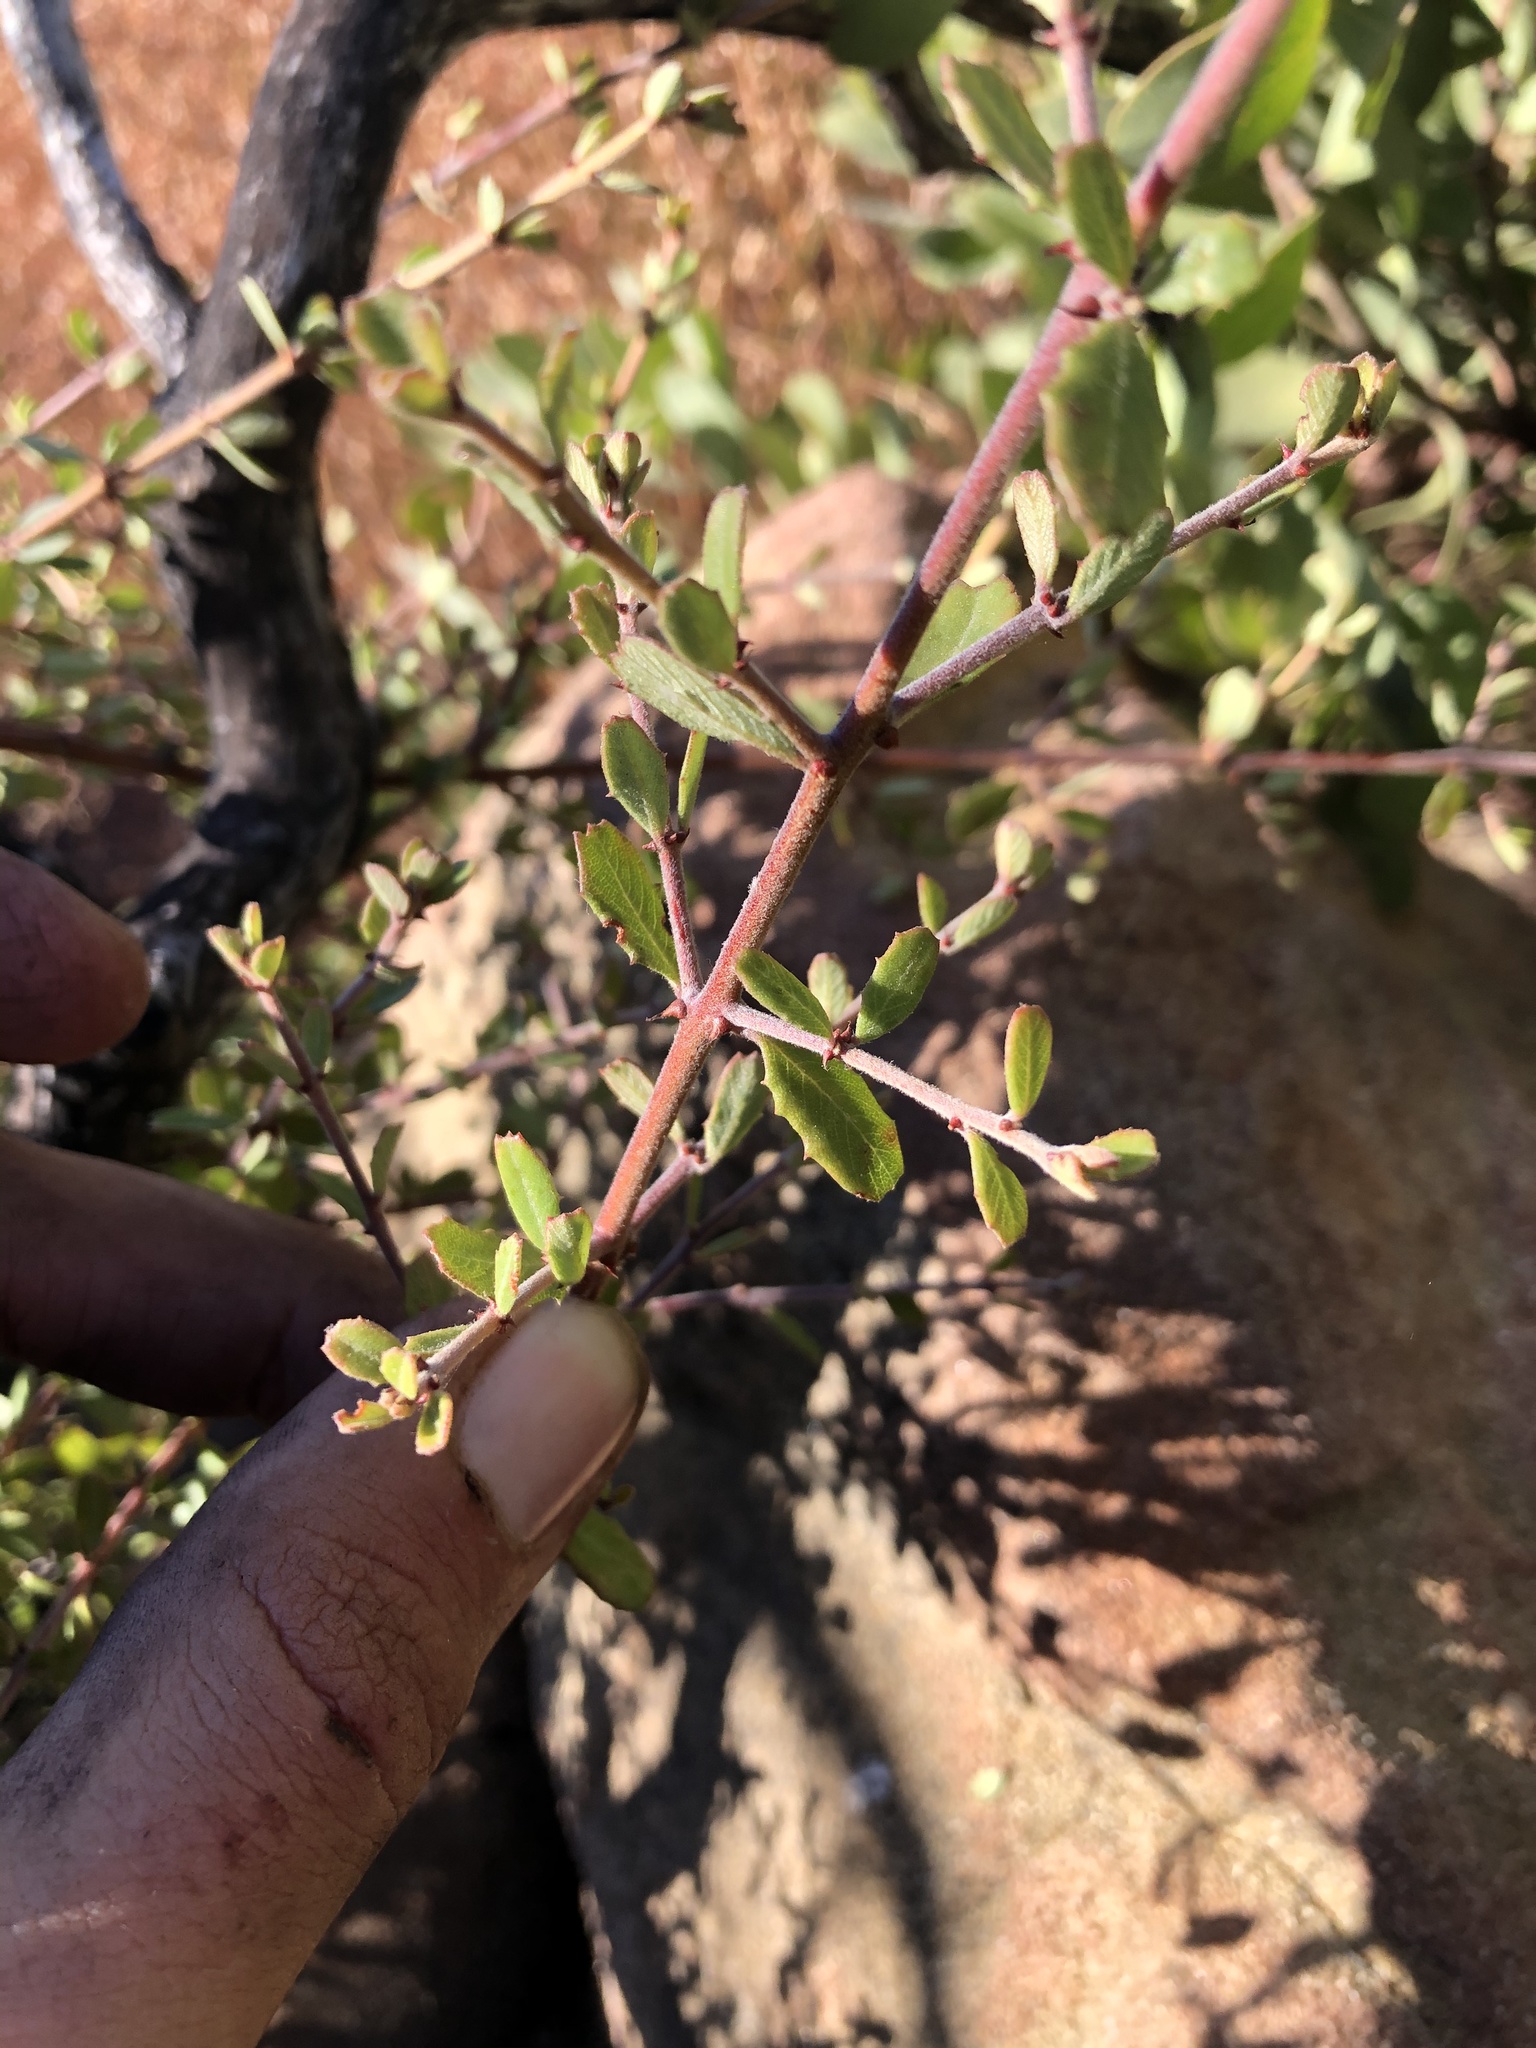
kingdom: Plantae
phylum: Tracheophyta
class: Magnoliopsida
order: Rosales
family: Rhamnaceae
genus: Ceanothus
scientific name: Ceanothus megacarpus
